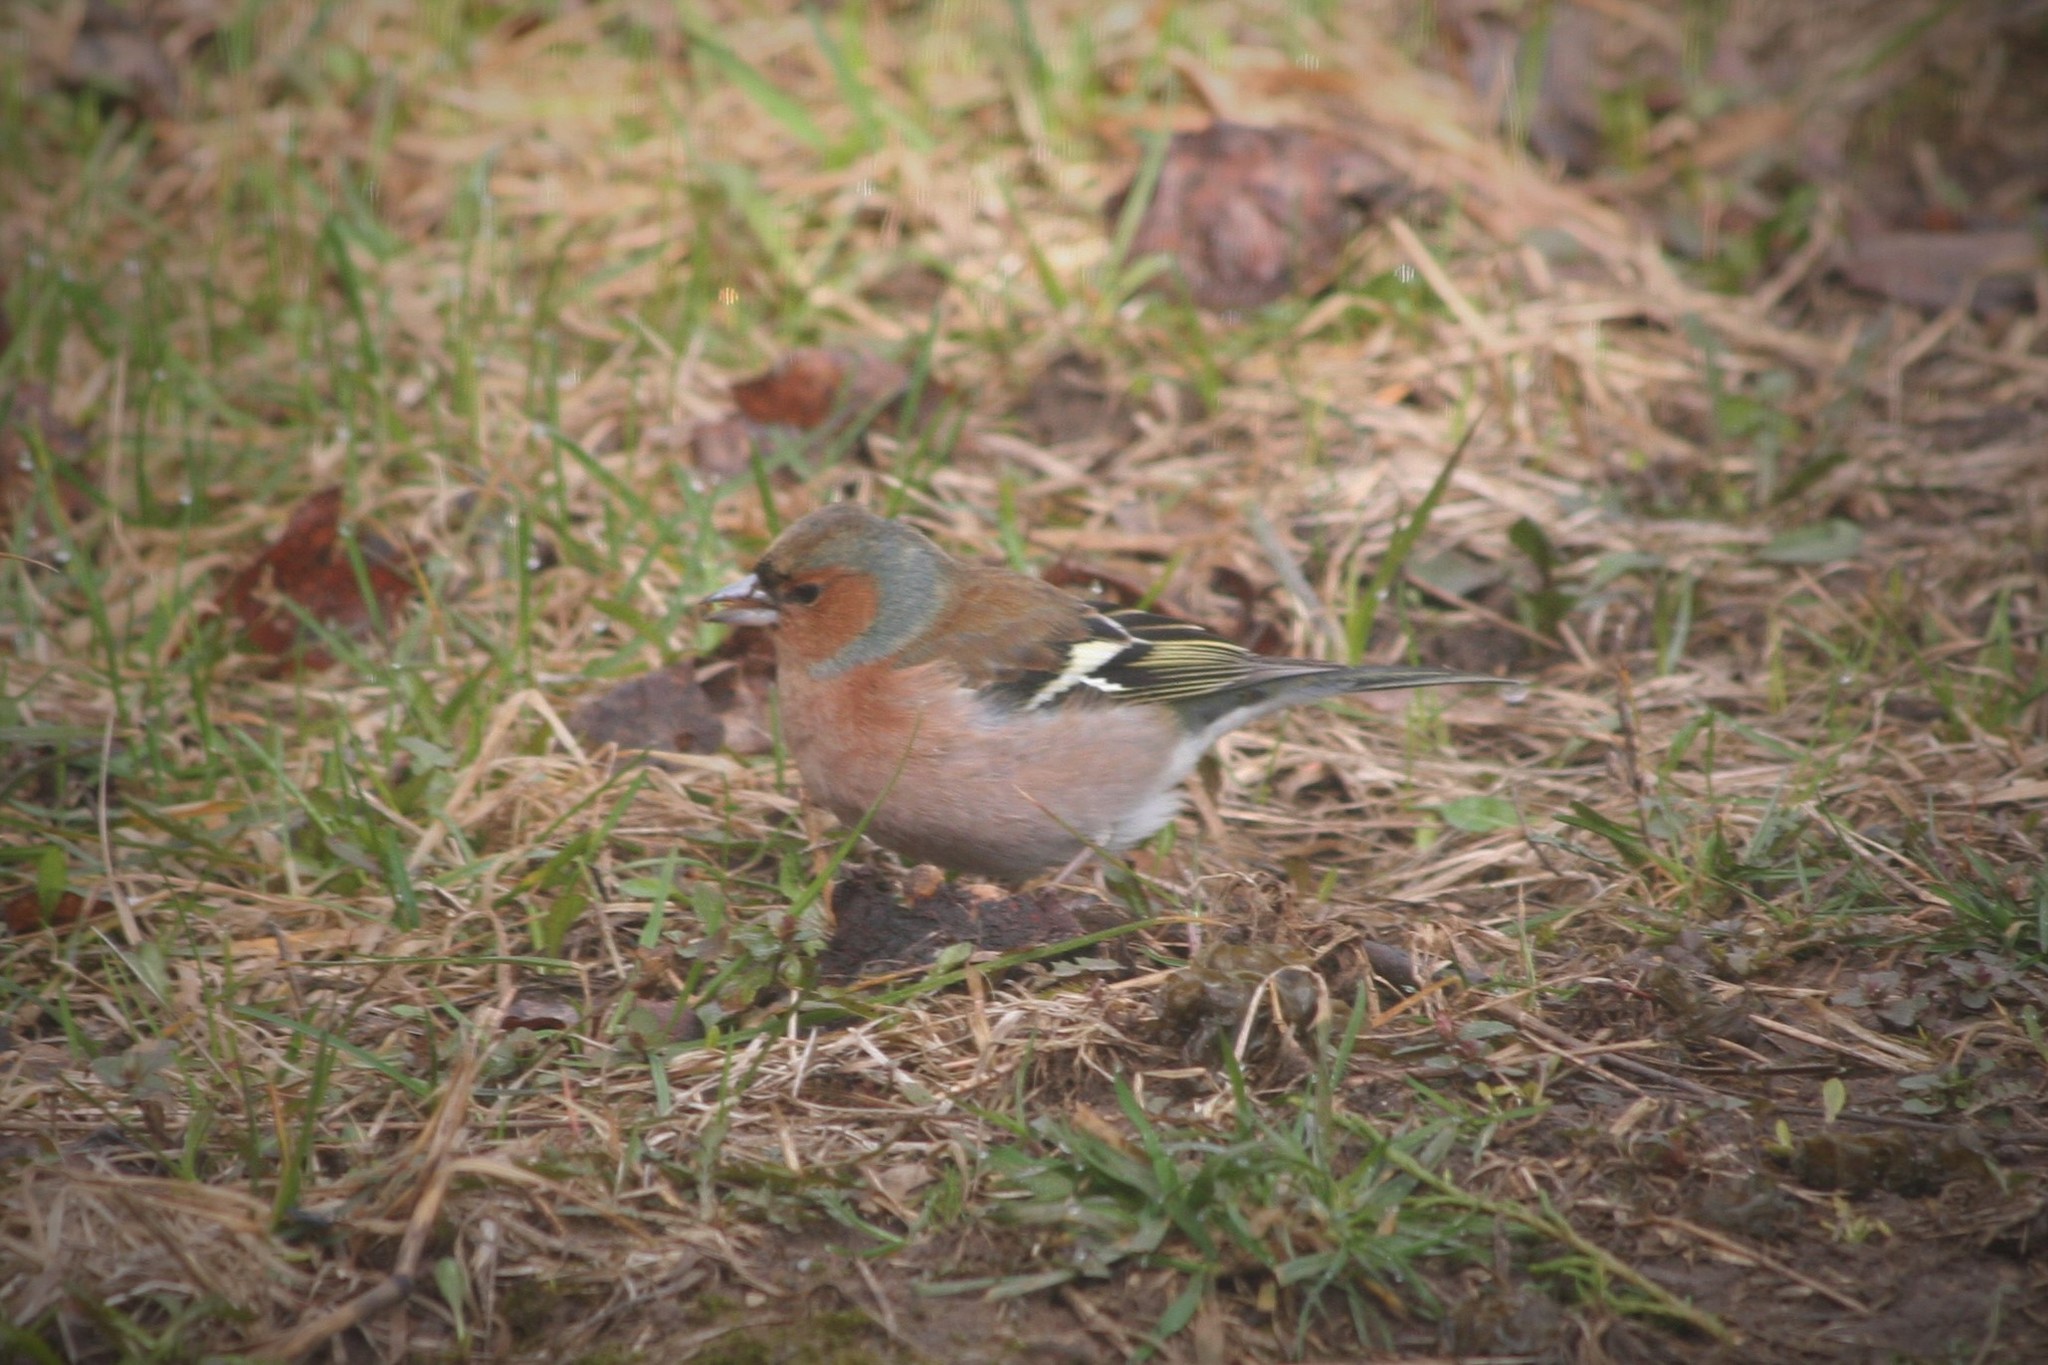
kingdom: Animalia
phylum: Chordata
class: Aves
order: Passeriformes
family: Fringillidae
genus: Fringilla
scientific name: Fringilla coelebs
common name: Common chaffinch
